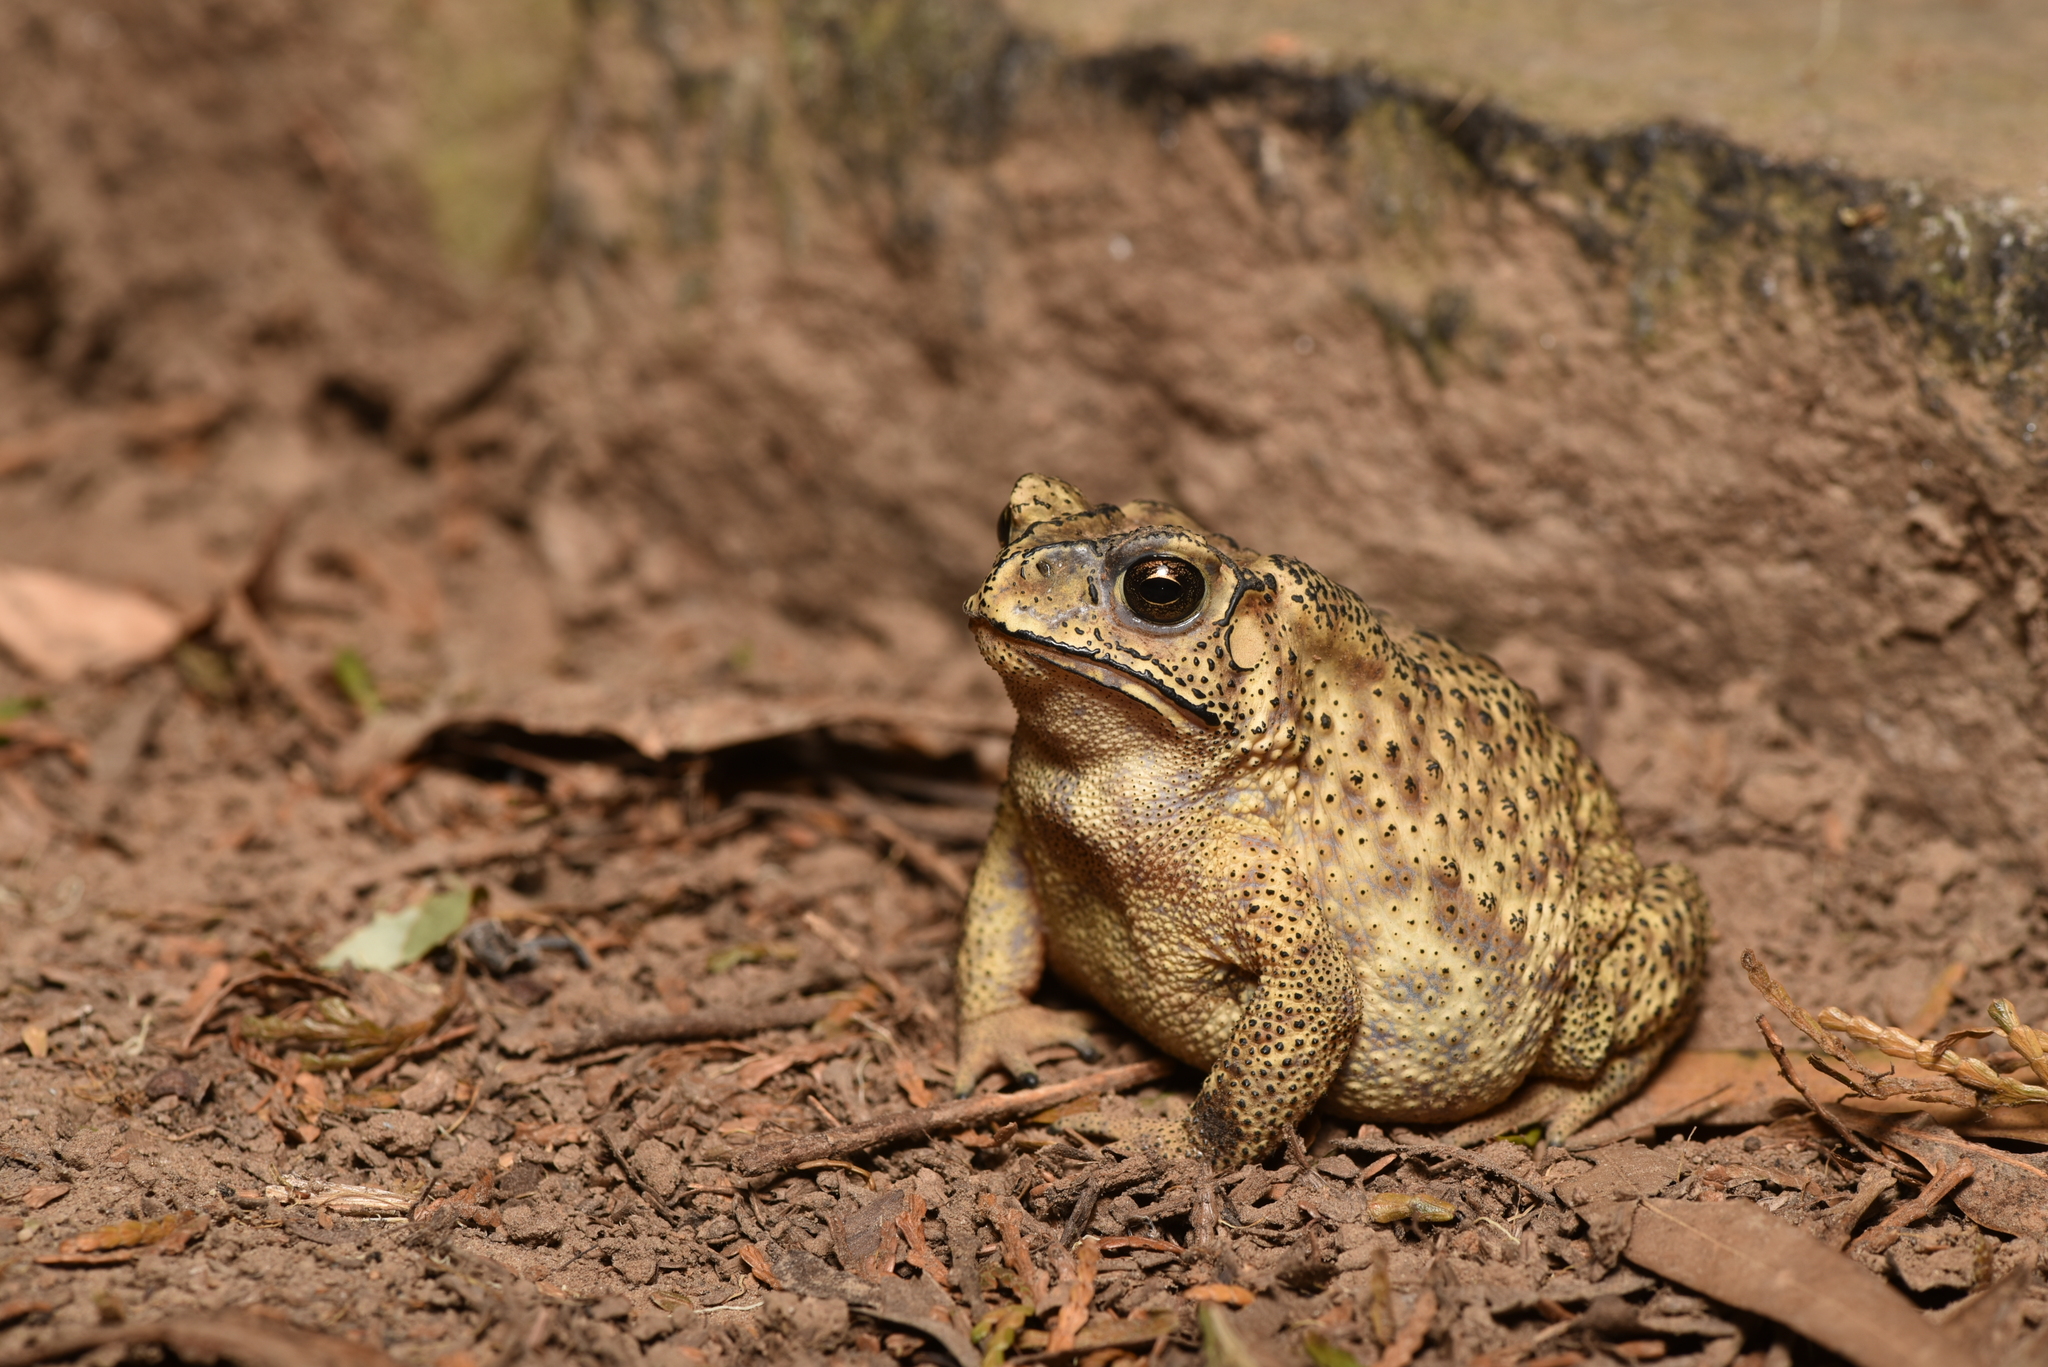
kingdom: Animalia
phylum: Chordata
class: Amphibia
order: Anura
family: Bufonidae
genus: Duttaphrynus
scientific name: Duttaphrynus melanostictus
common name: Common sunda toad
